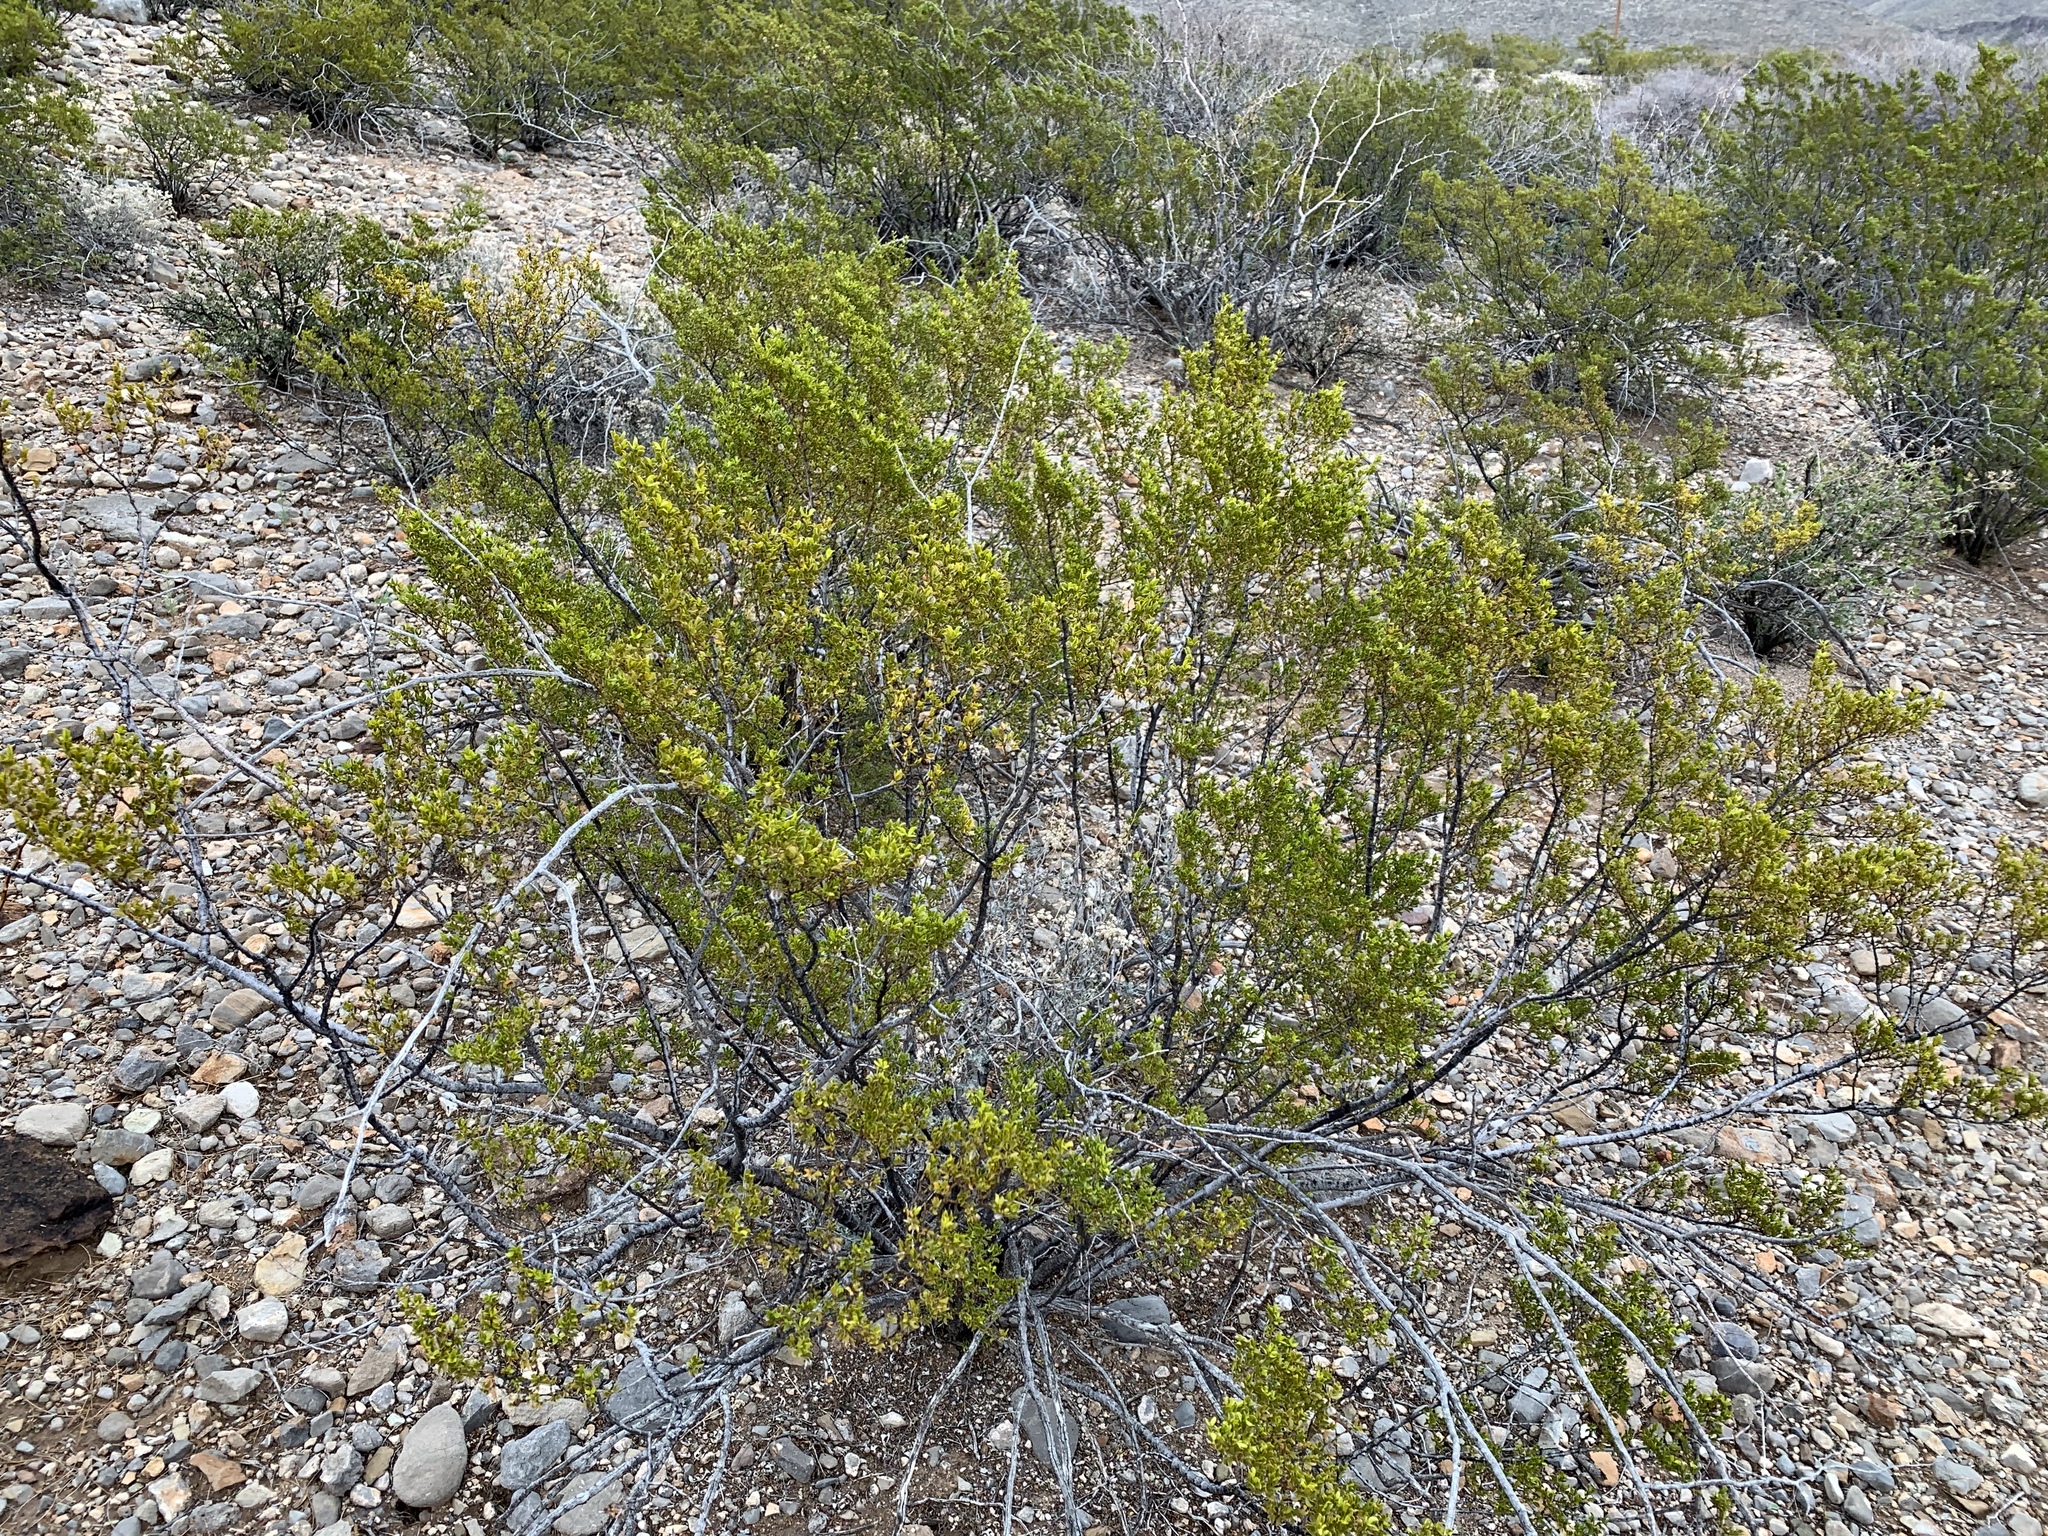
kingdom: Plantae
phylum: Tracheophyta
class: Magnoliopsida
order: Zygophyllales
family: Zygophyllaceae
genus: Larrea
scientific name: Larrea tridentata
